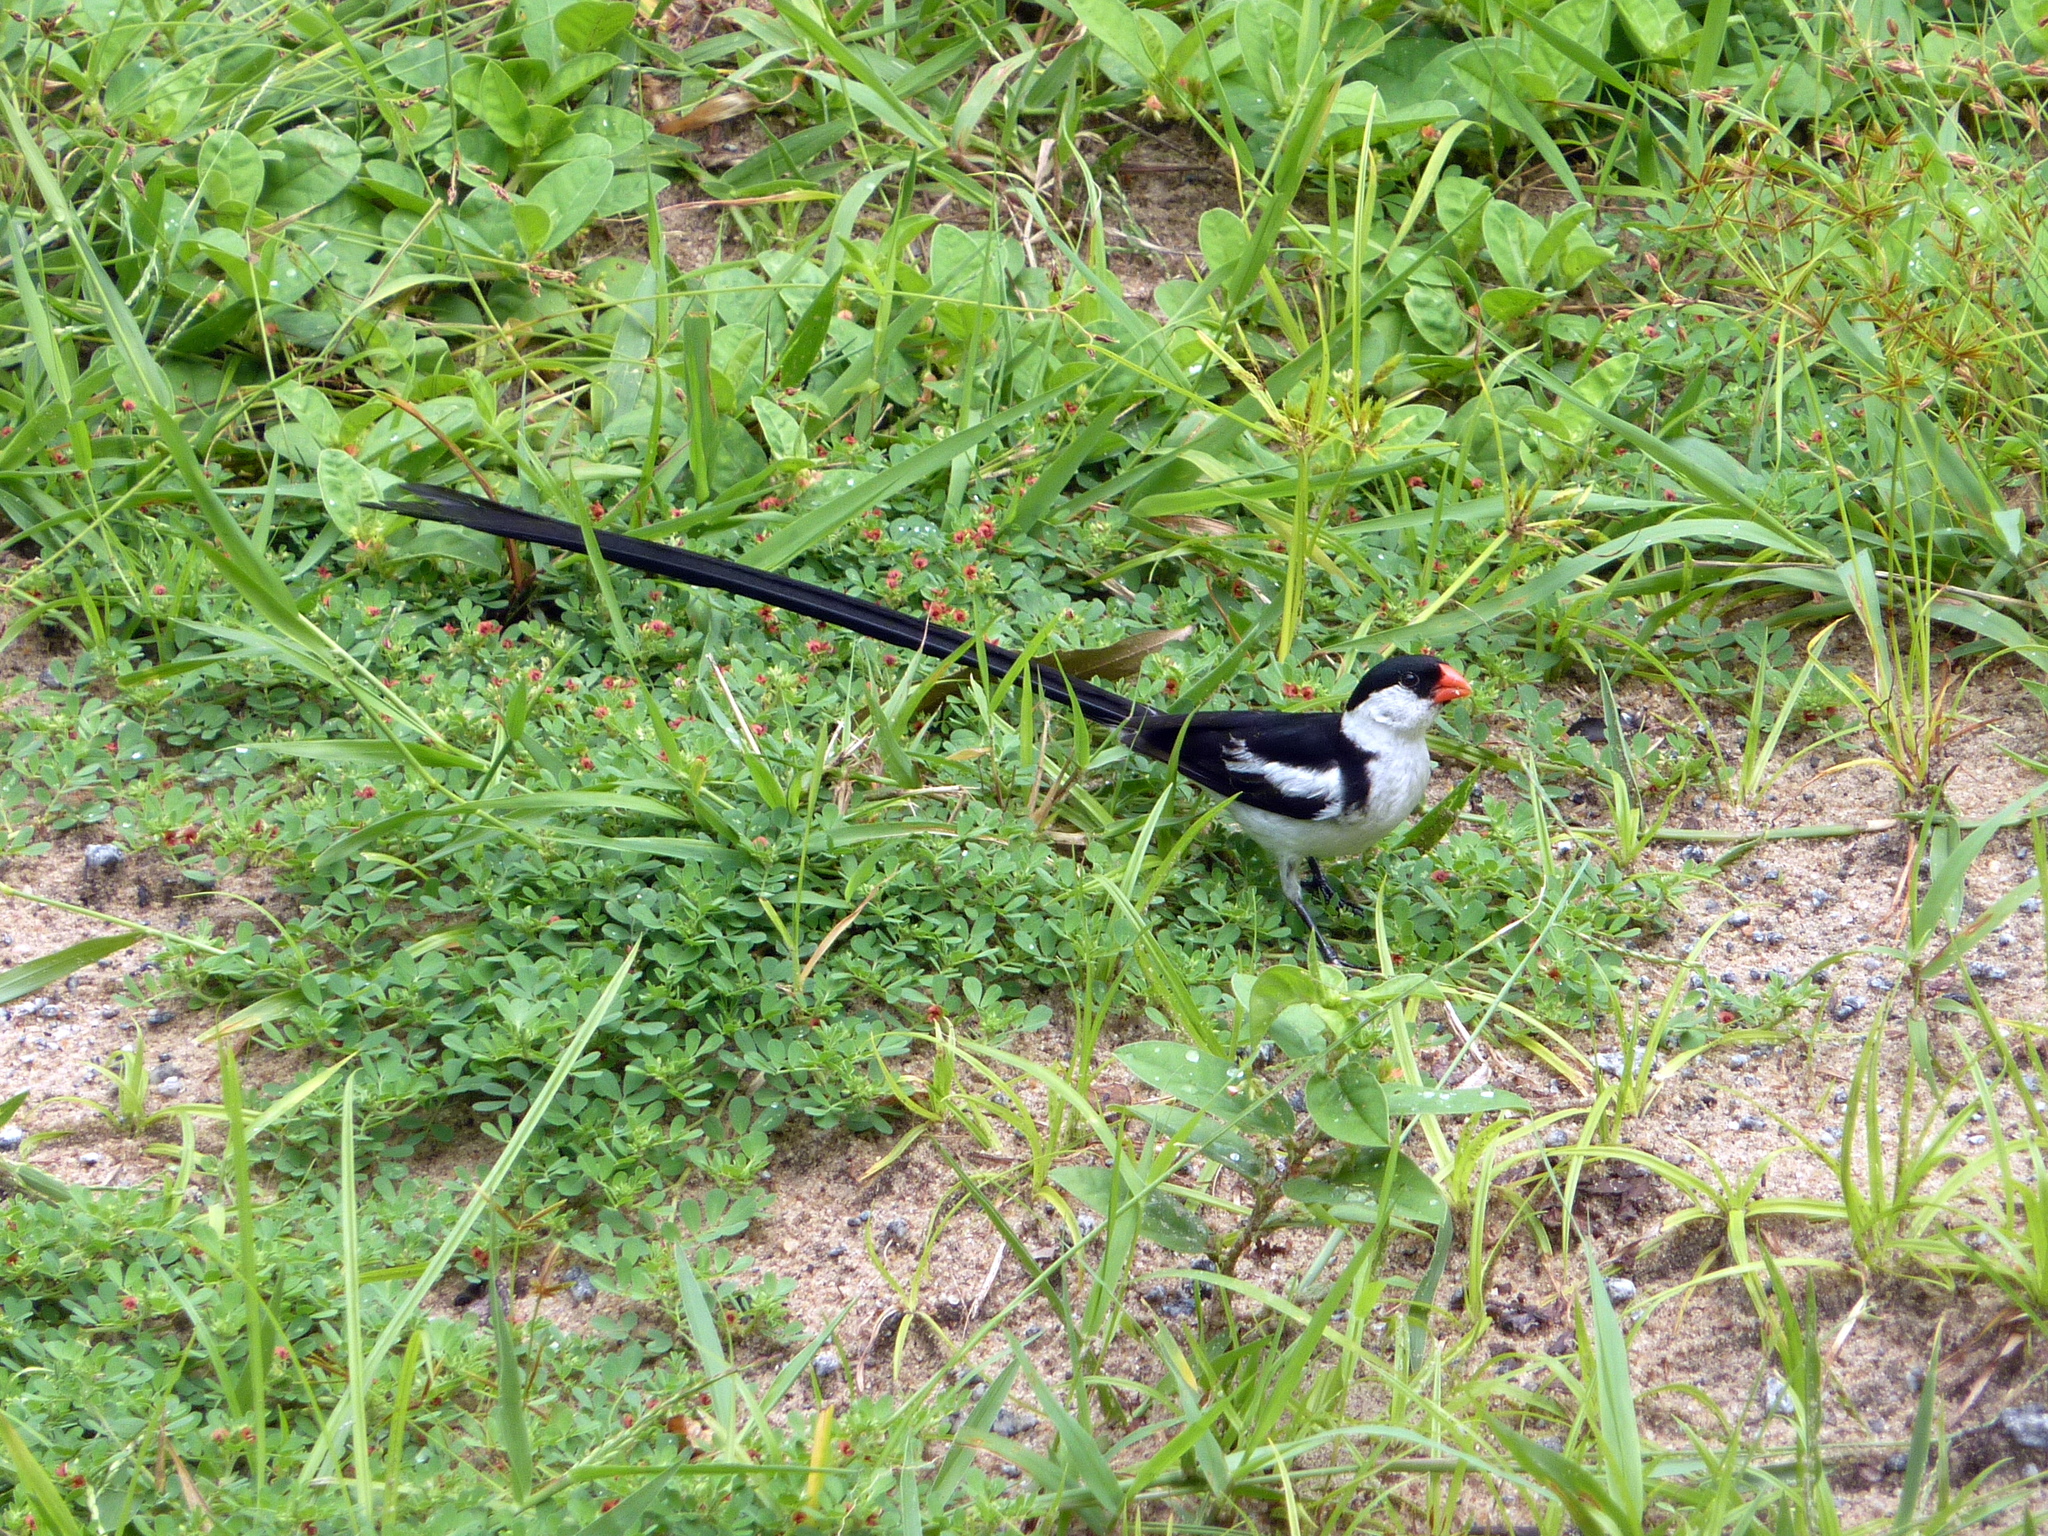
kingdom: Animalia
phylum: Chordata
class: Aves
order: Passeriformes
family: Viduidae
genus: Vidua
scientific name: Vidua macroura
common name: Pin-tailed whydah
